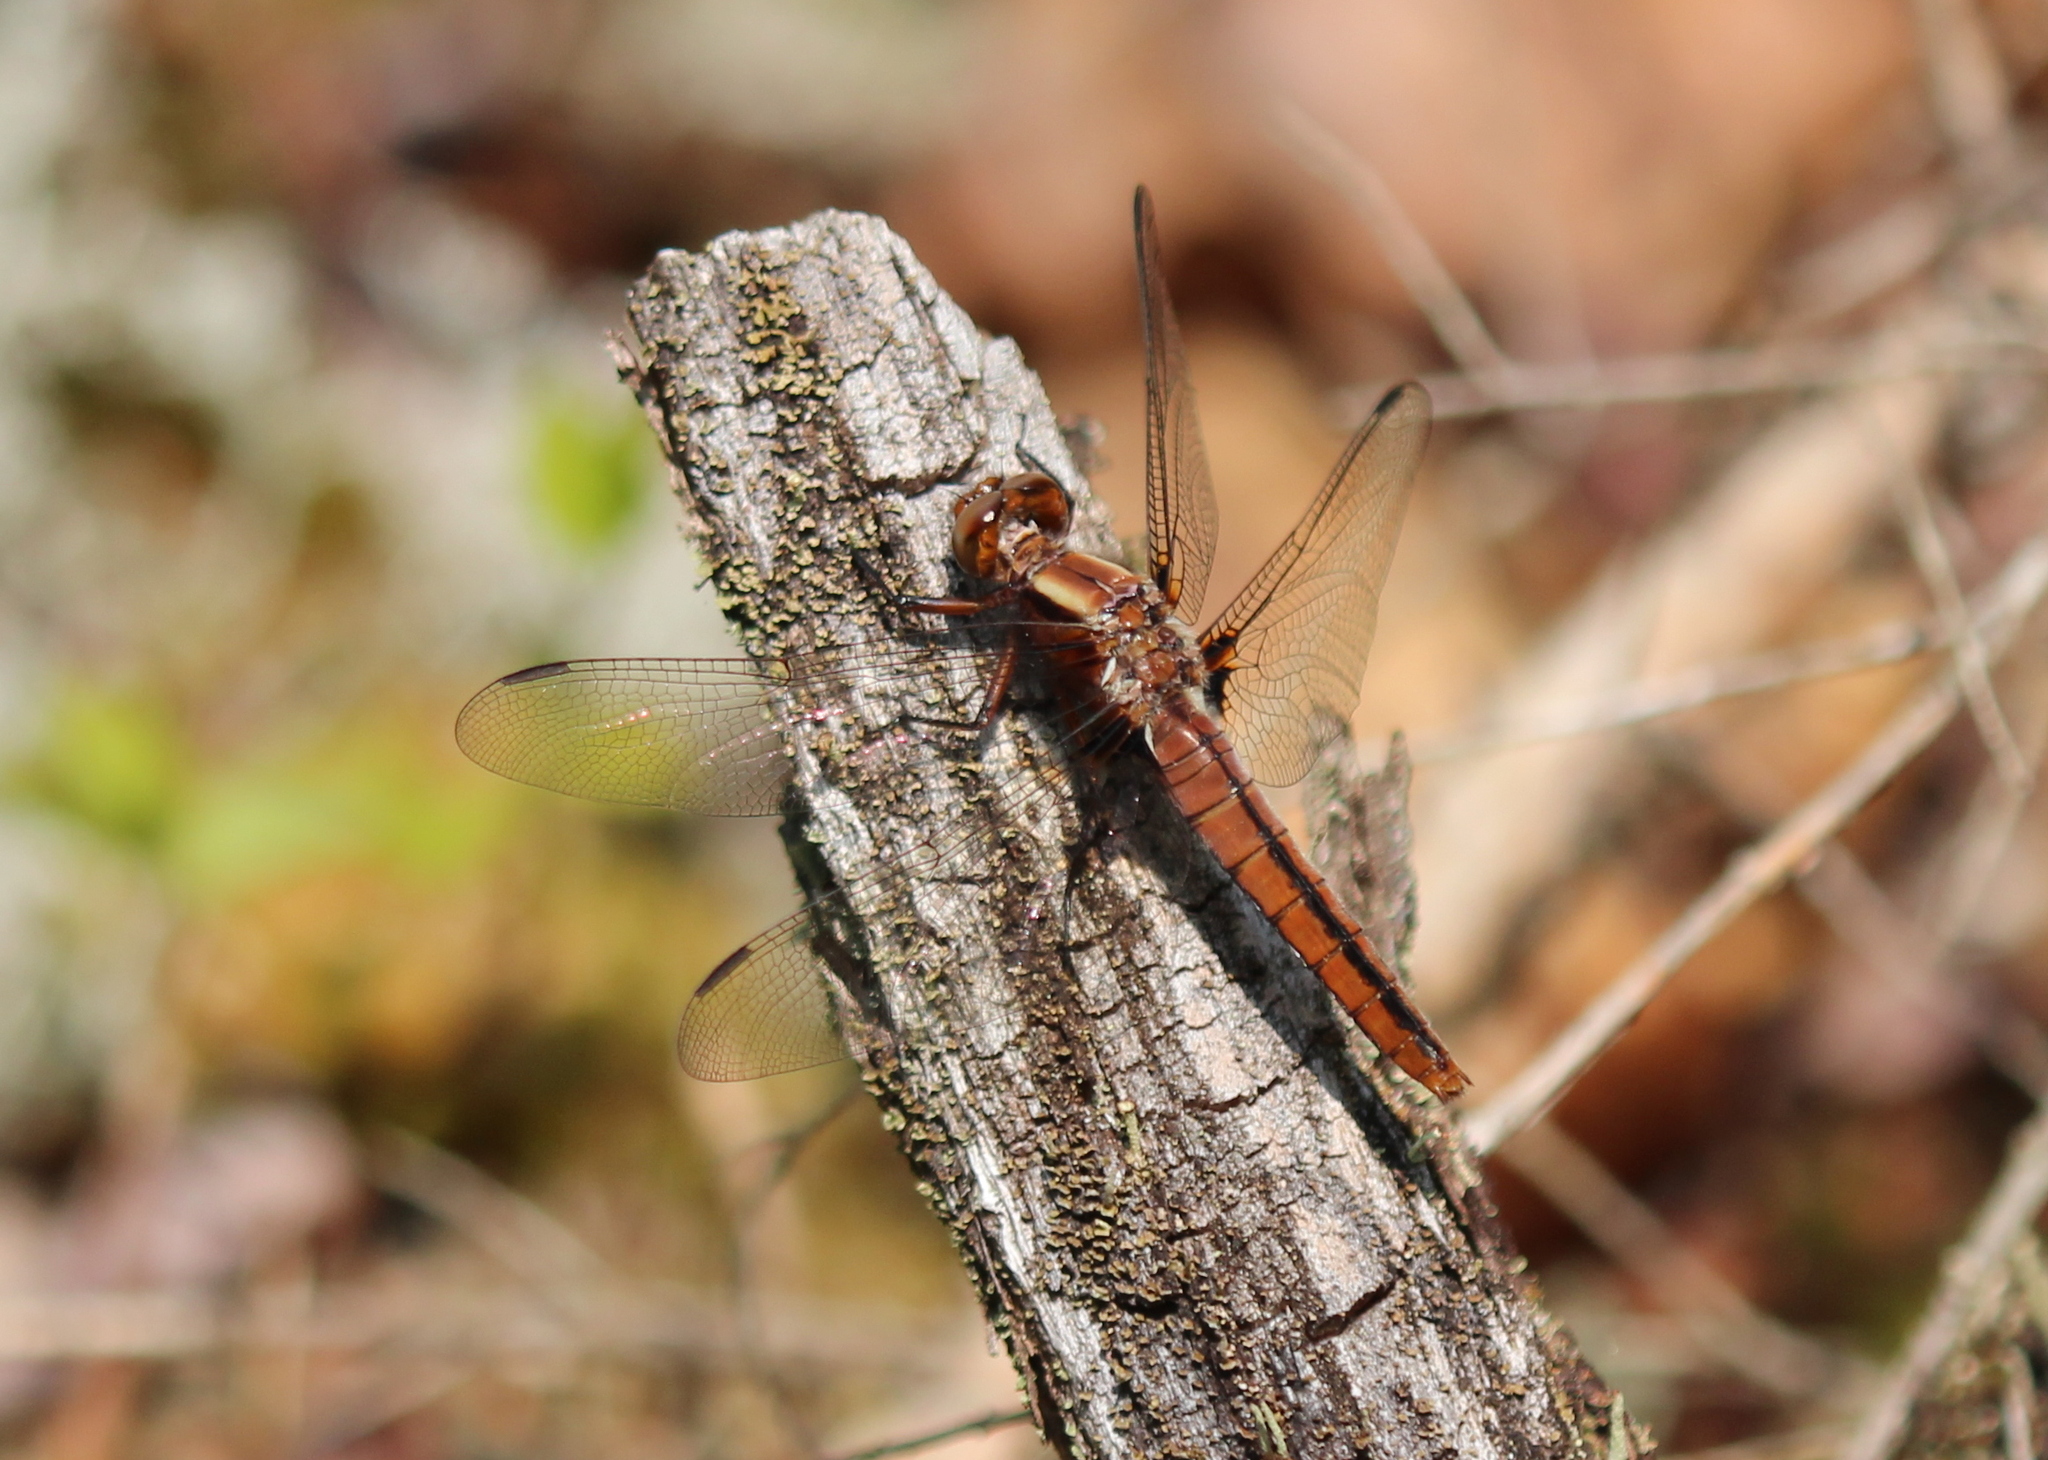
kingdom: Animalia
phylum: Arthropoda
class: Insecta
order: Odonata
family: Libellulidae
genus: Ladona
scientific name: Ladona julia
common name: Chalk-fronted corporal
